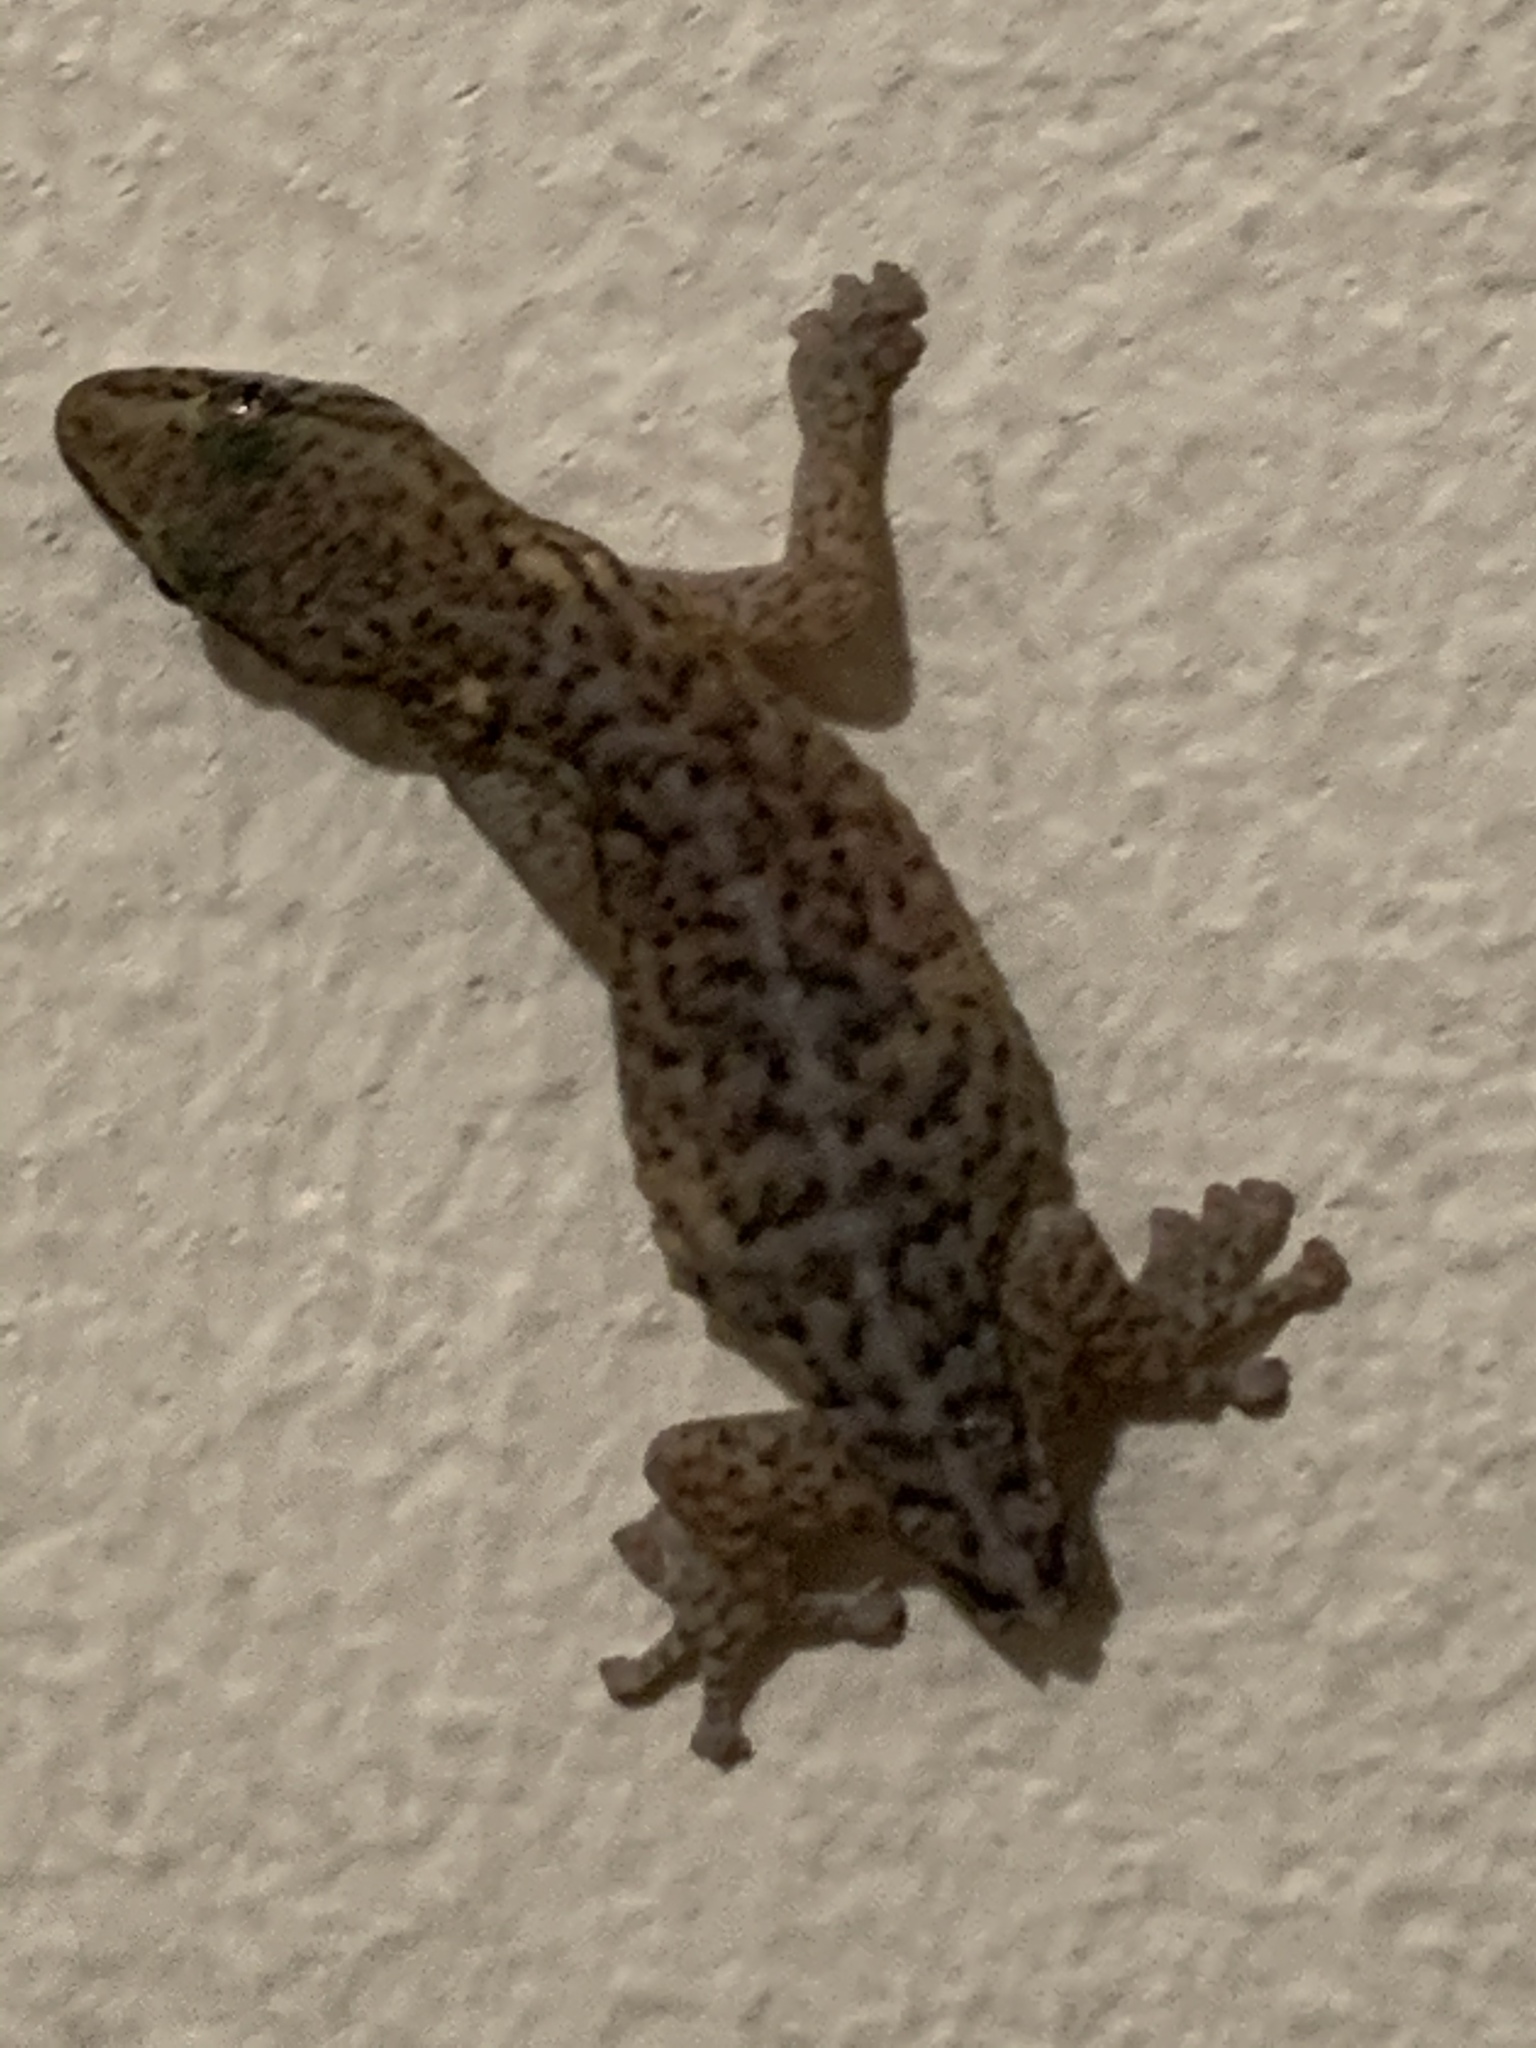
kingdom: Animalia
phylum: Chordata
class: Squamata
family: Gekkonidae
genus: Afrogecko
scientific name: Afrogecko porphyreus
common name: Marbled leaf-toed gecko
